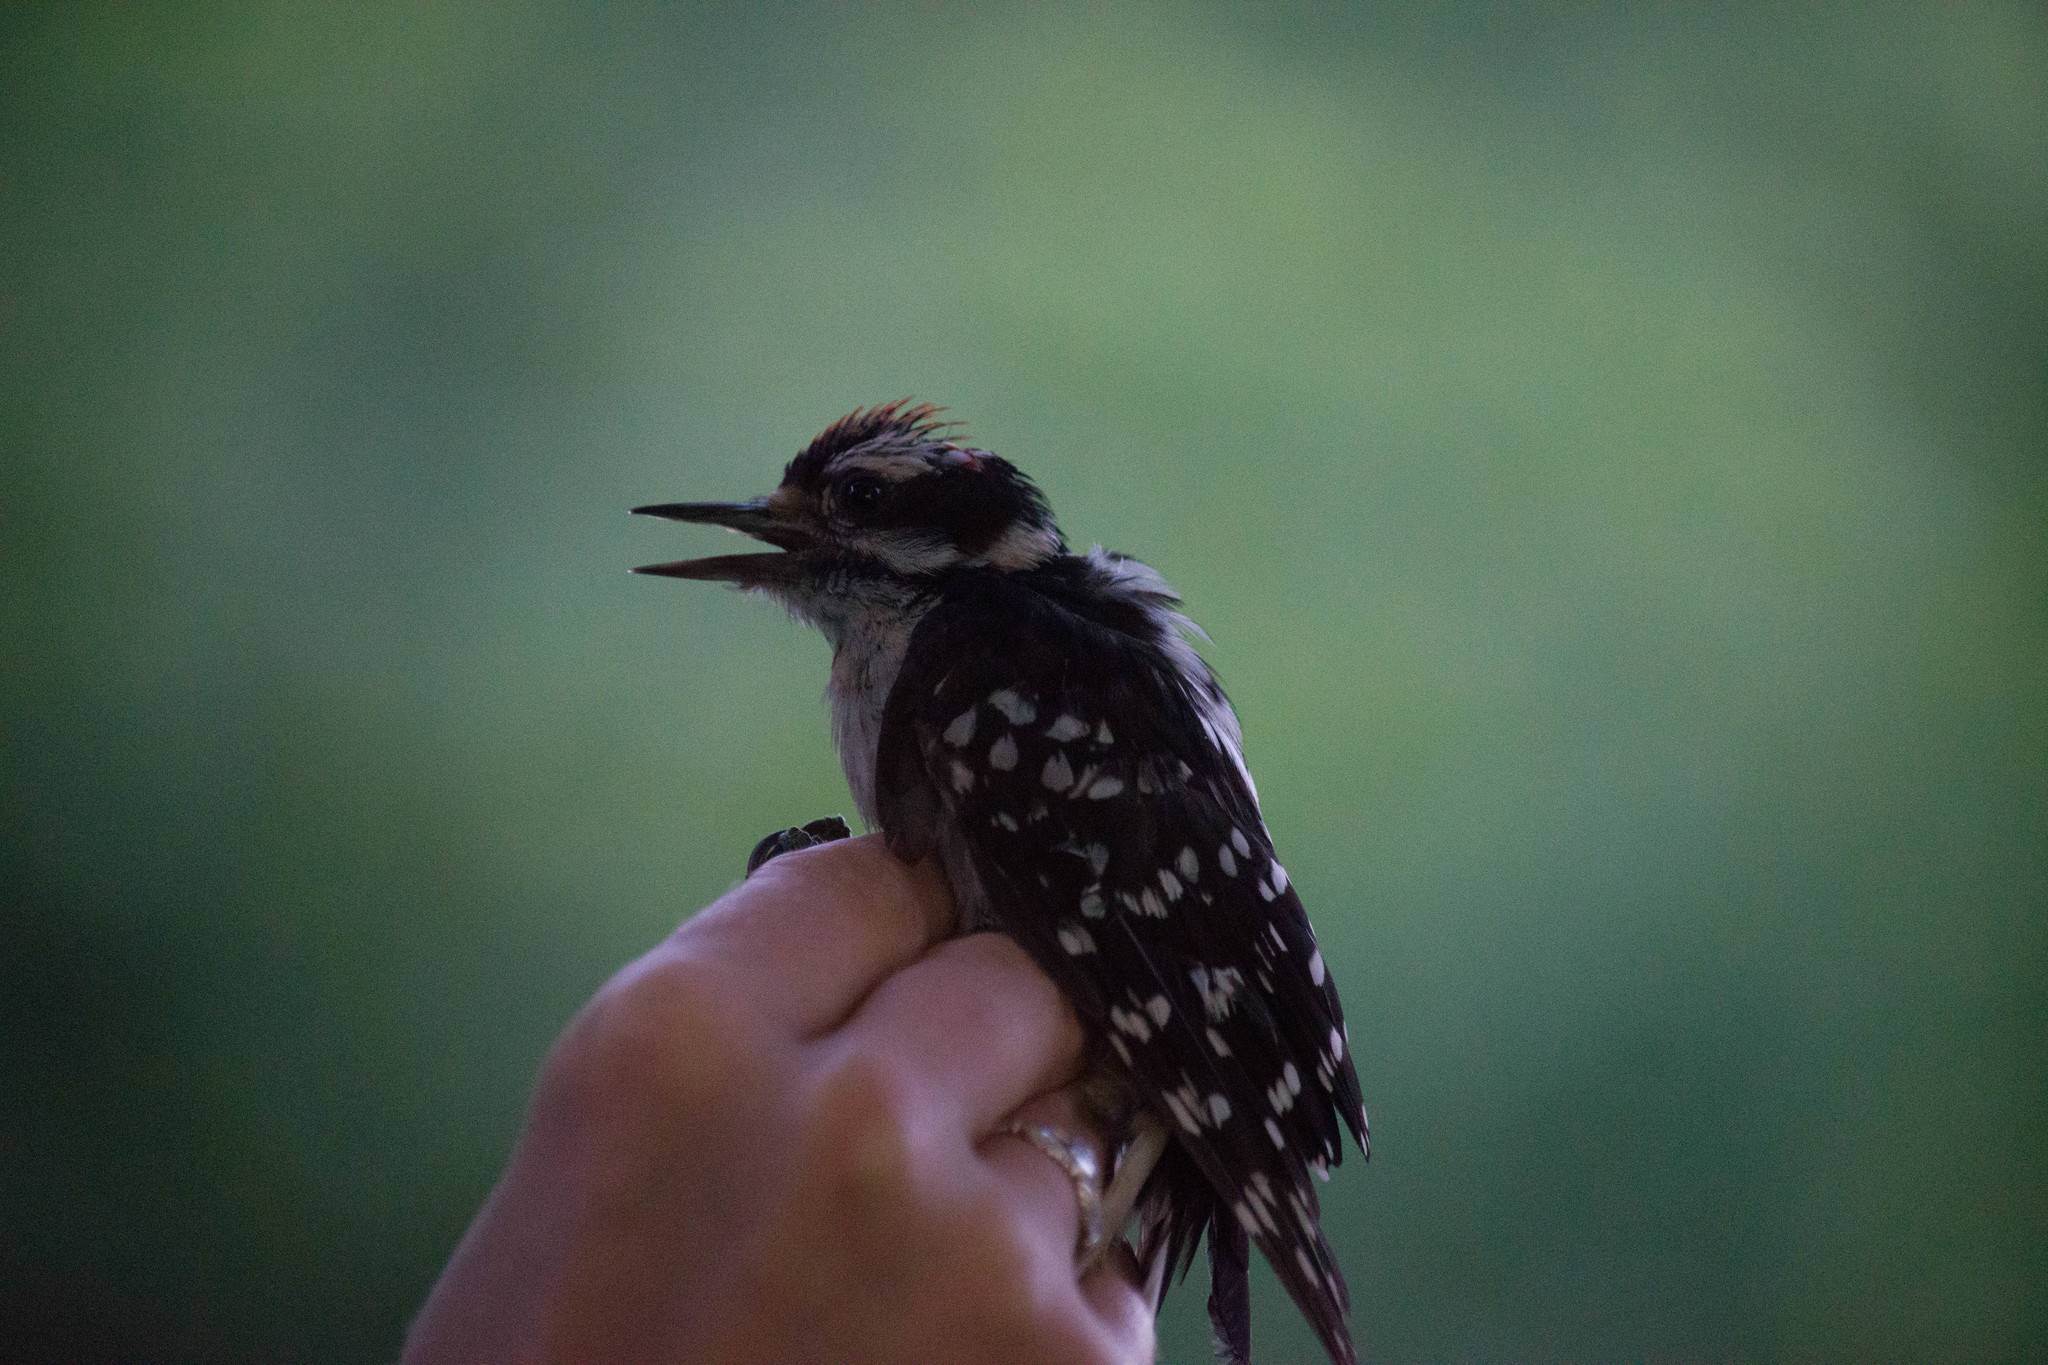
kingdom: Animalia
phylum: Chordata
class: Aves
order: Piciformes
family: Picidae
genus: Dryobates
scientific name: Dryobates pubescens
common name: Downy woodpecker
